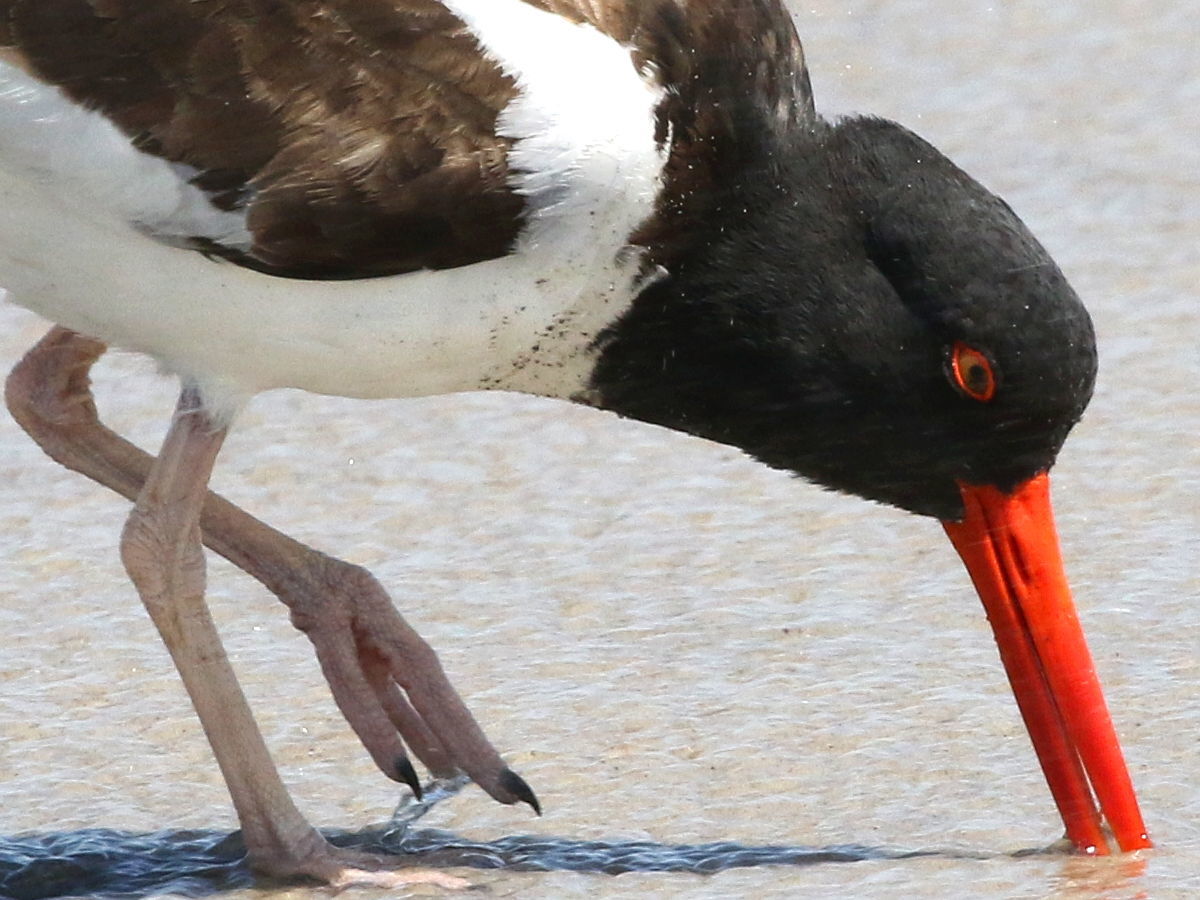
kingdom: Animalia
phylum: Chordata
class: Aves
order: Charadriiformes
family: Haematopodidae
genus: Haematopus
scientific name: Haematopus palliatus
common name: American oystercatcher
